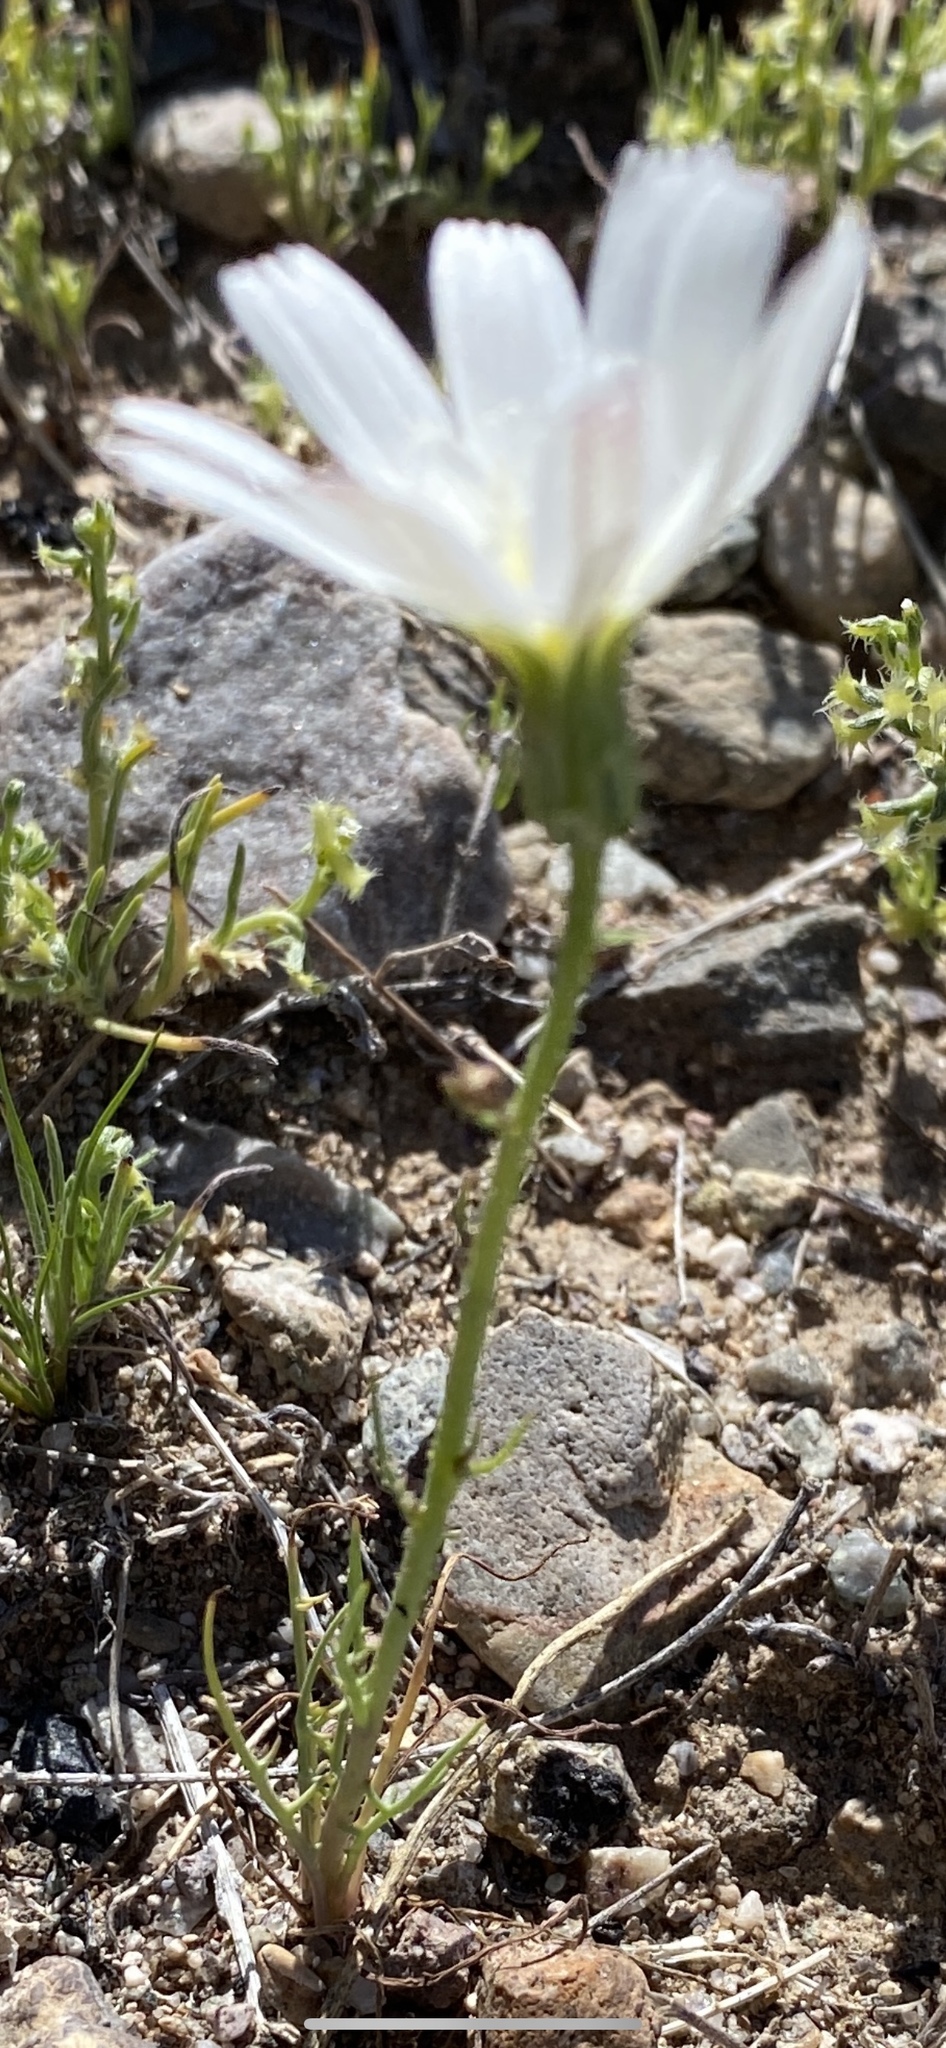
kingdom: Plantae
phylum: Tracheophyta
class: Magnoliopsida
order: Asterales
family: Asteraceae
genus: Rafinesquia
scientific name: Rafinesquia neomexicana
